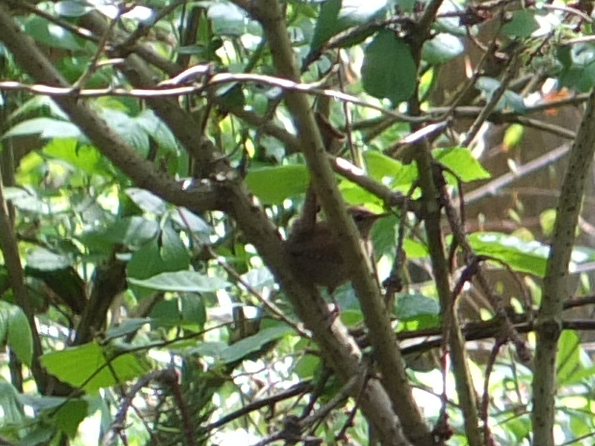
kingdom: Animalia
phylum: Chordata
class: Aves
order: Passeriformes
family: Troglodytidae
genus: Troglodytes
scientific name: Troglodytes troglodytes
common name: Eurasian wren
